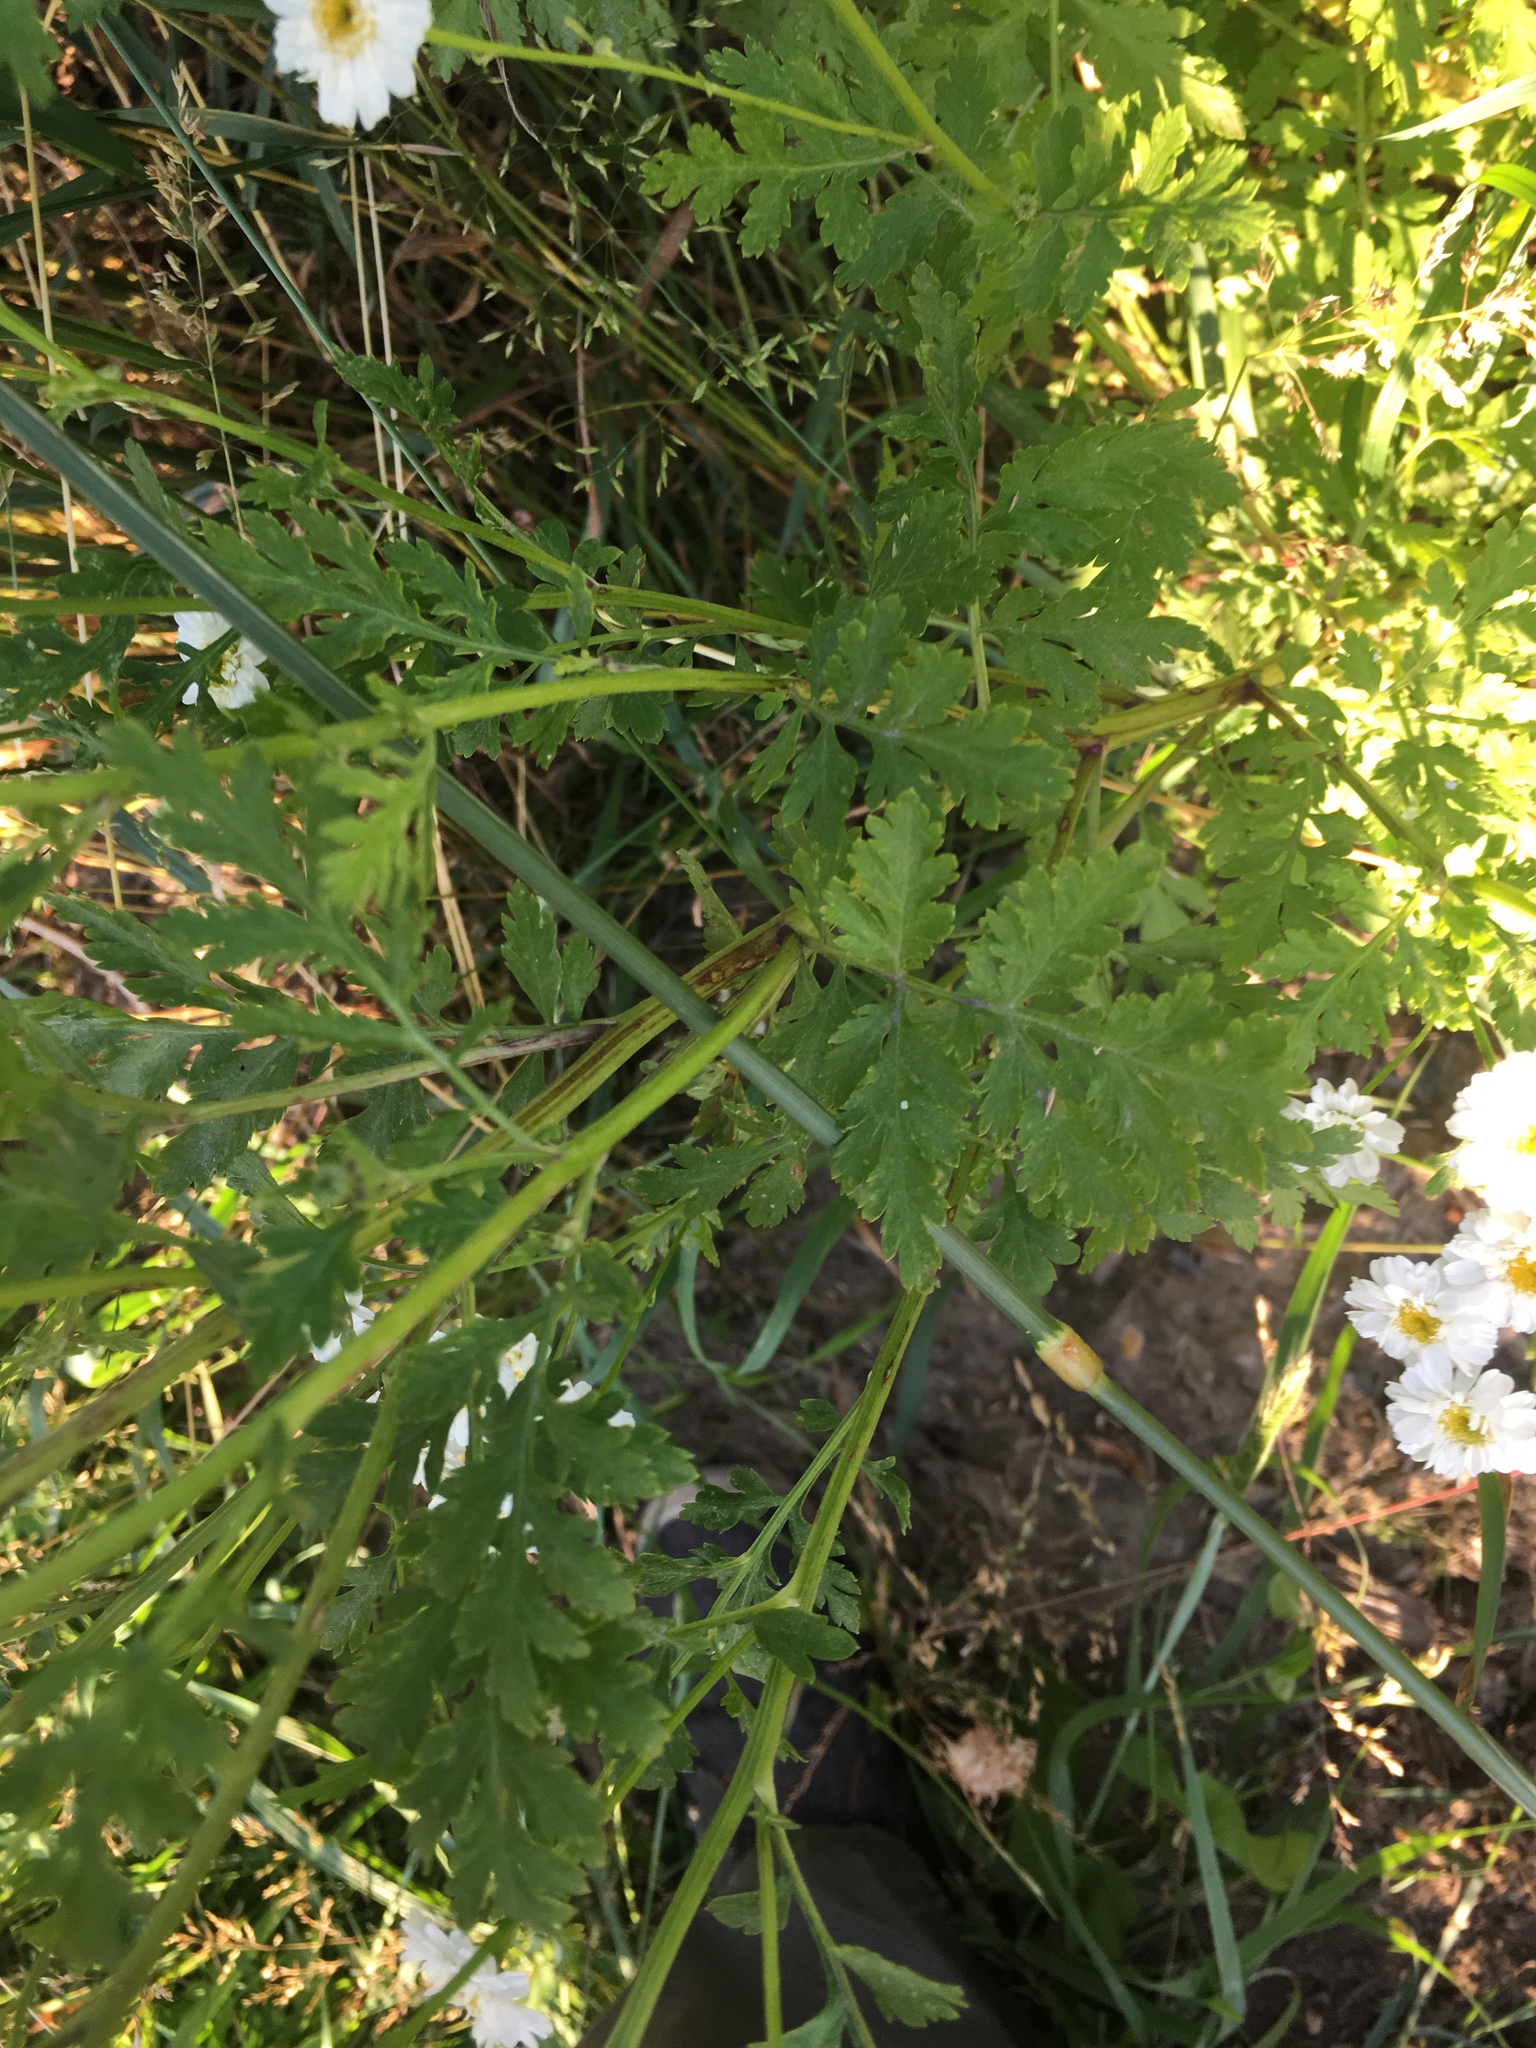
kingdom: Plantae
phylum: Tracheophyta
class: Magnoliopsida
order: Asterales
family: Asteraceae
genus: Tanacetum
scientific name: Tanacetum parthenium
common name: Feverfew
